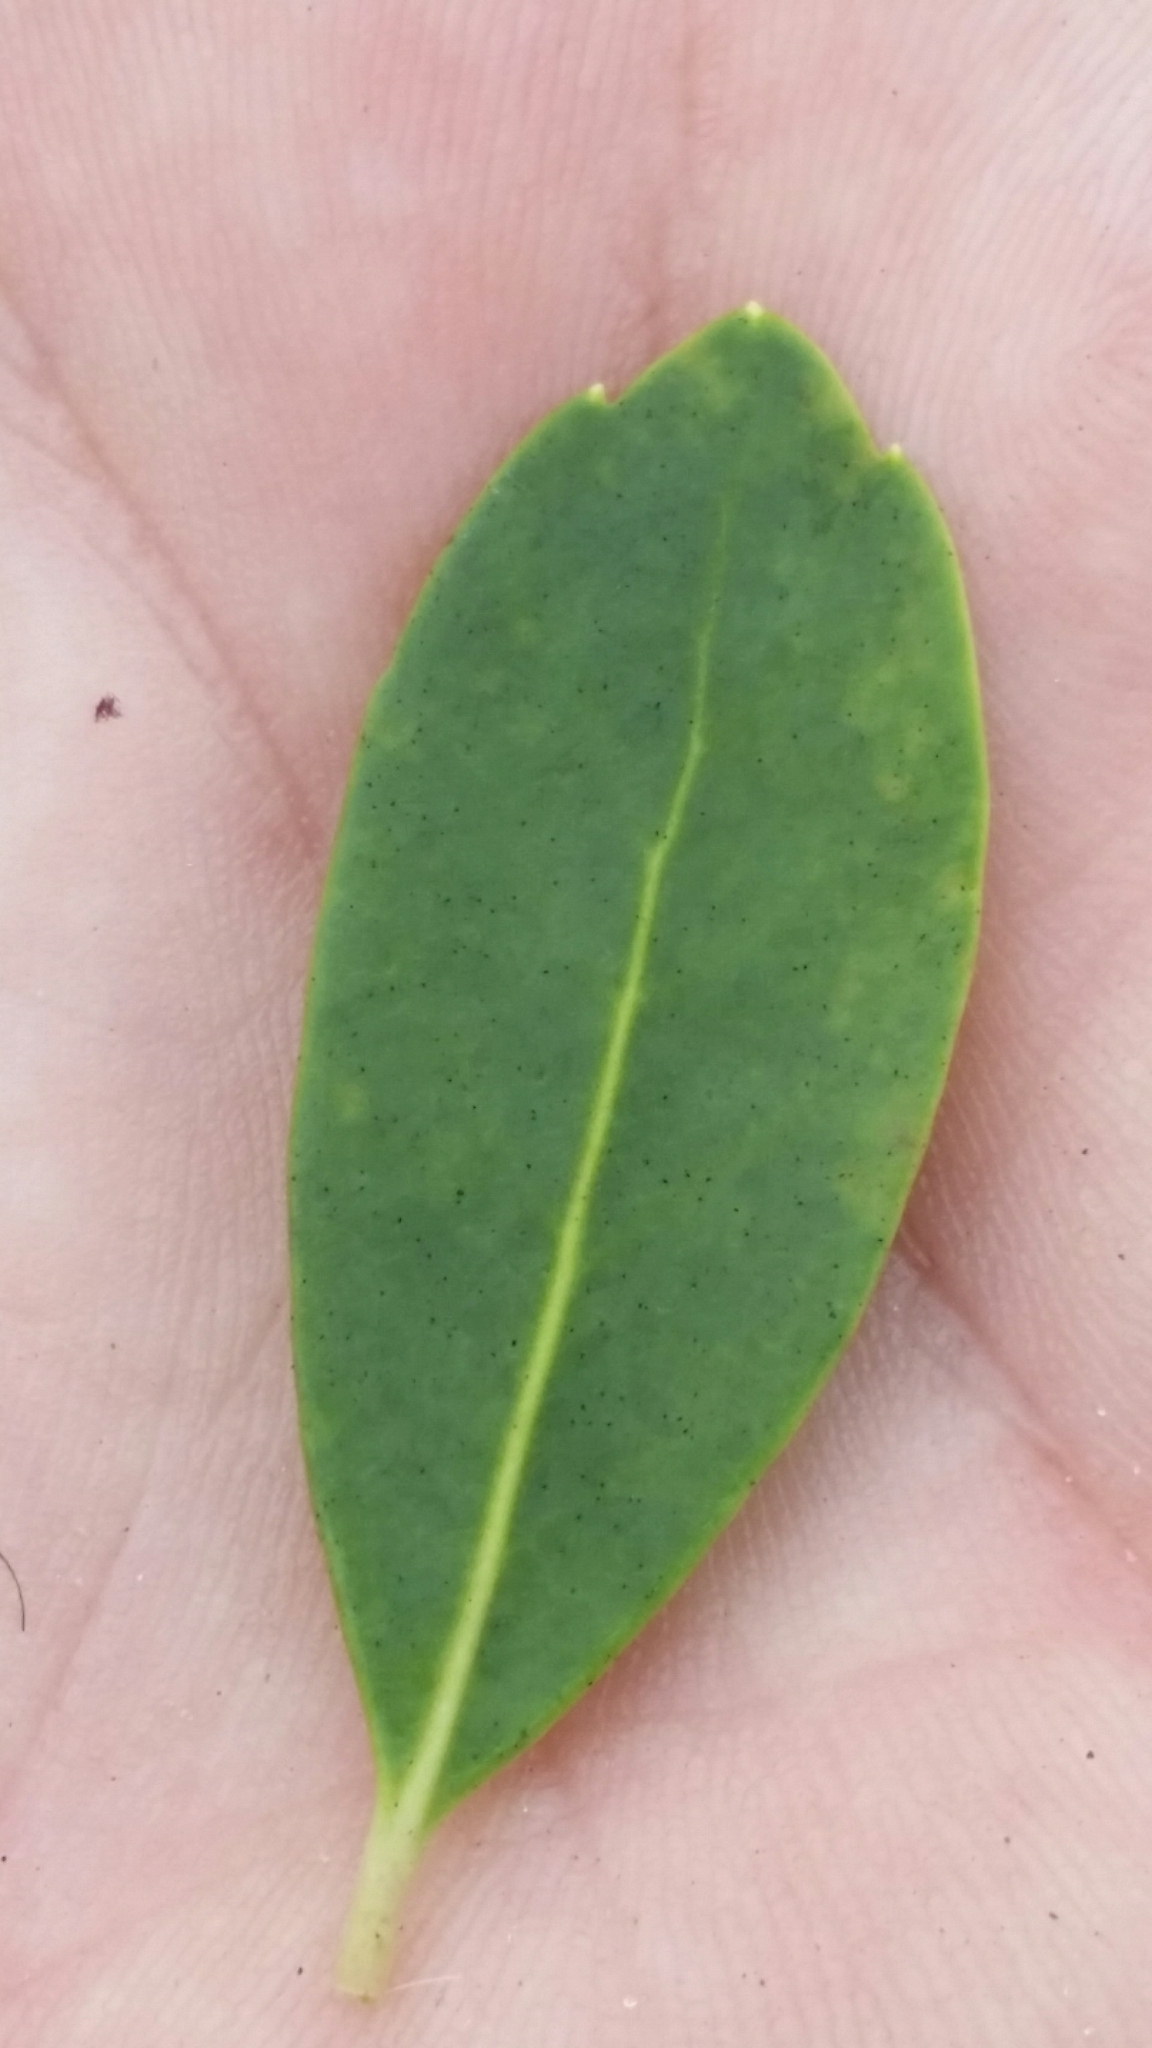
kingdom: Plantae
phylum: Tracheophyta
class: Magnoliopsida
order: Aquifoliales
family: Aquifoliaceae
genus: Ilex
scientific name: Ilex glabra
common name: Bitter gallberry
